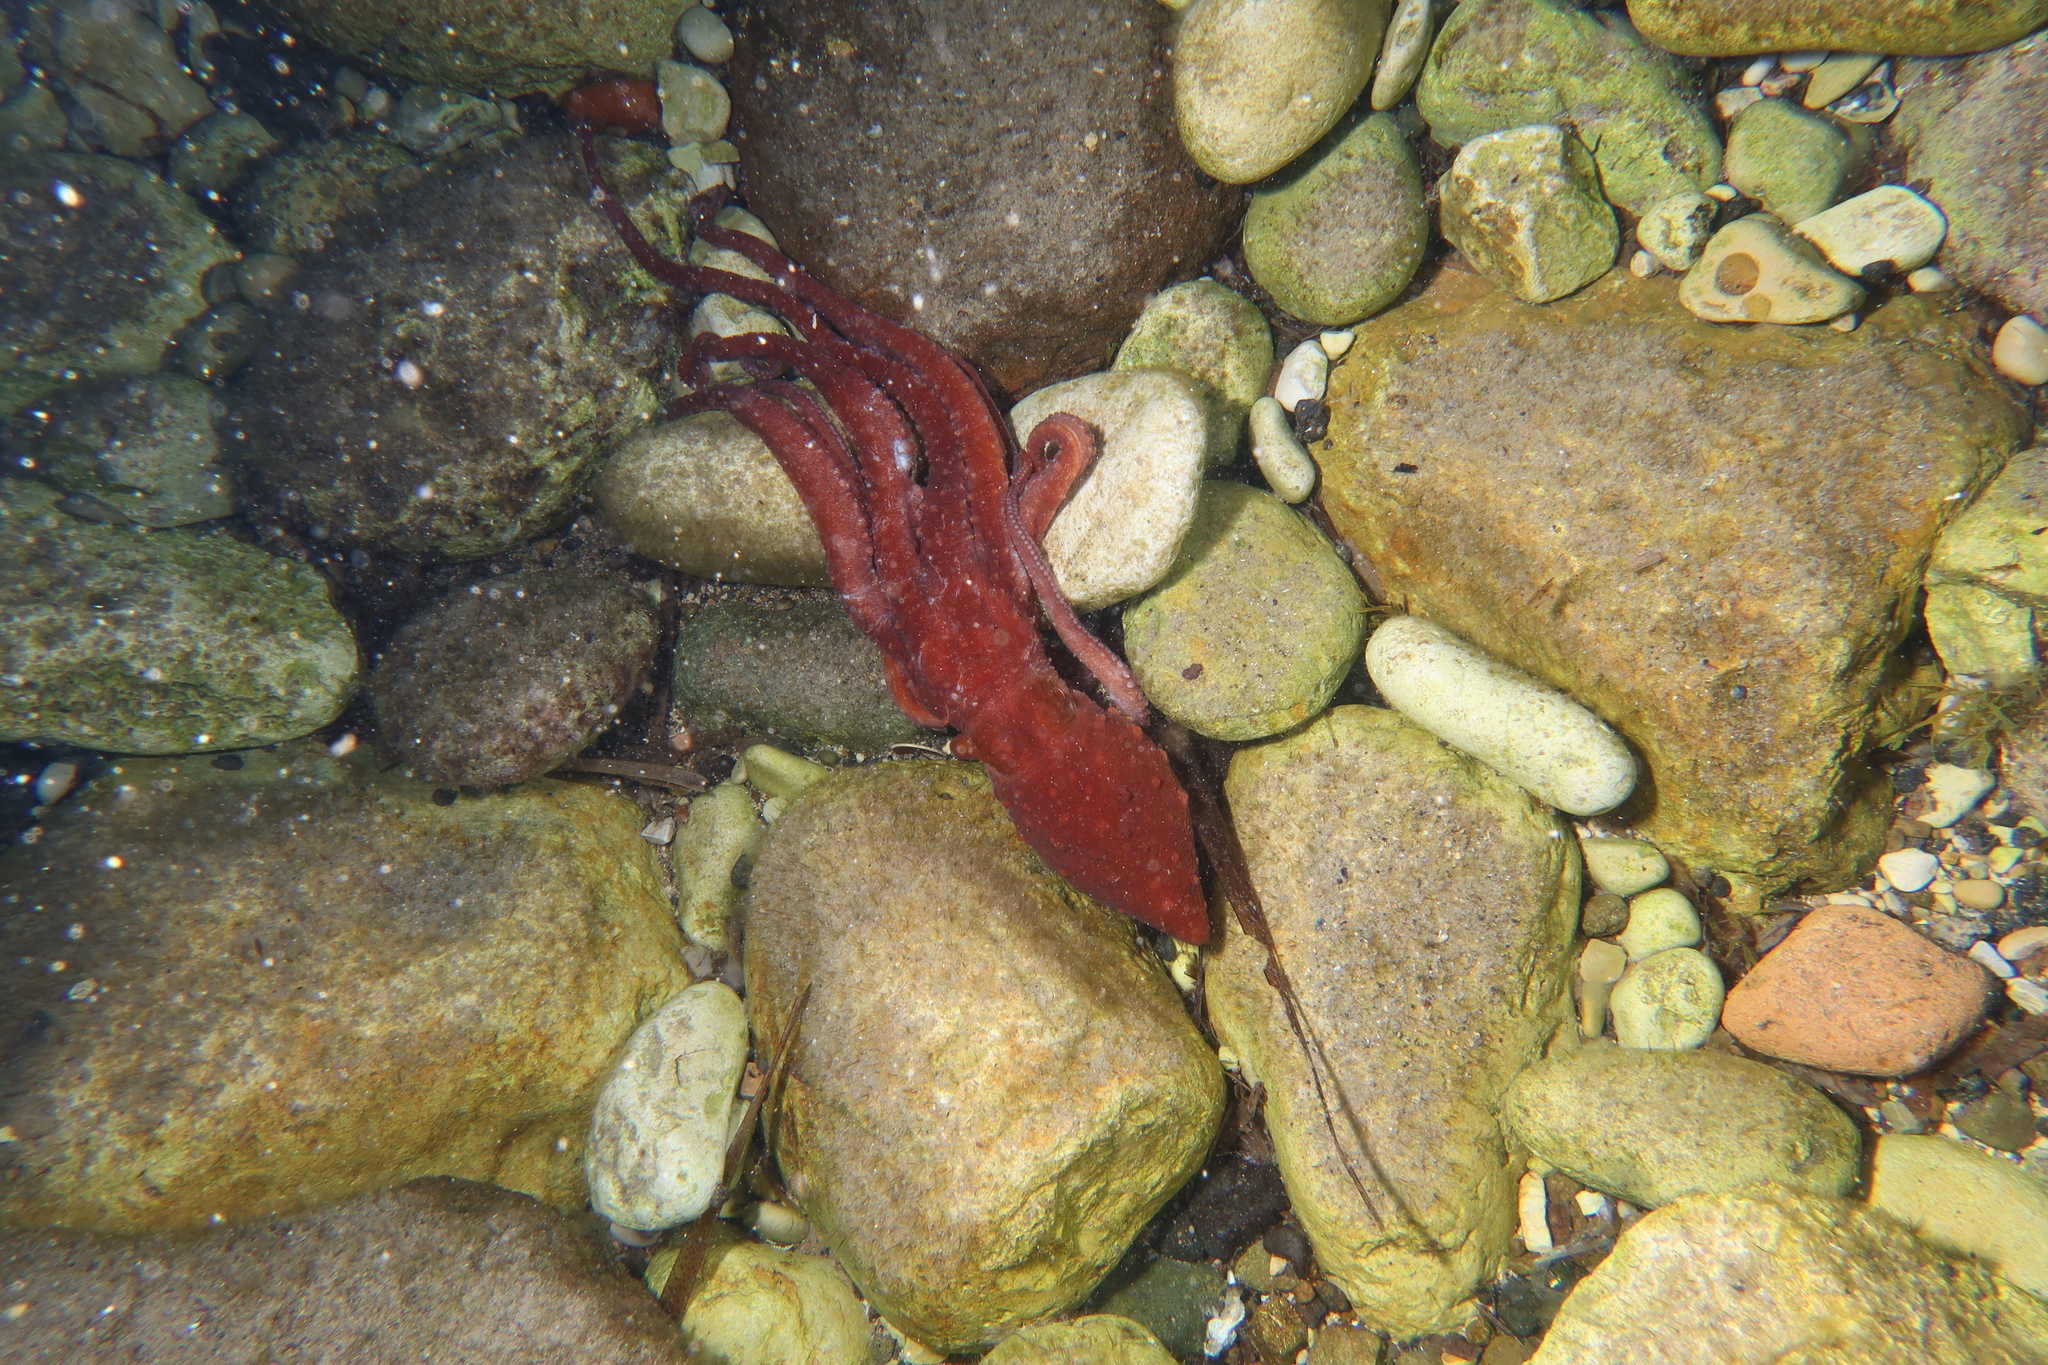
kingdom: Animalia
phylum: Mollusca
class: Cephalopoda
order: Octopoda
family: Octopodidae
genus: Callistoctopus
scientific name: Callistoctopus macropus
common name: Atlantic white-spotted octopus
